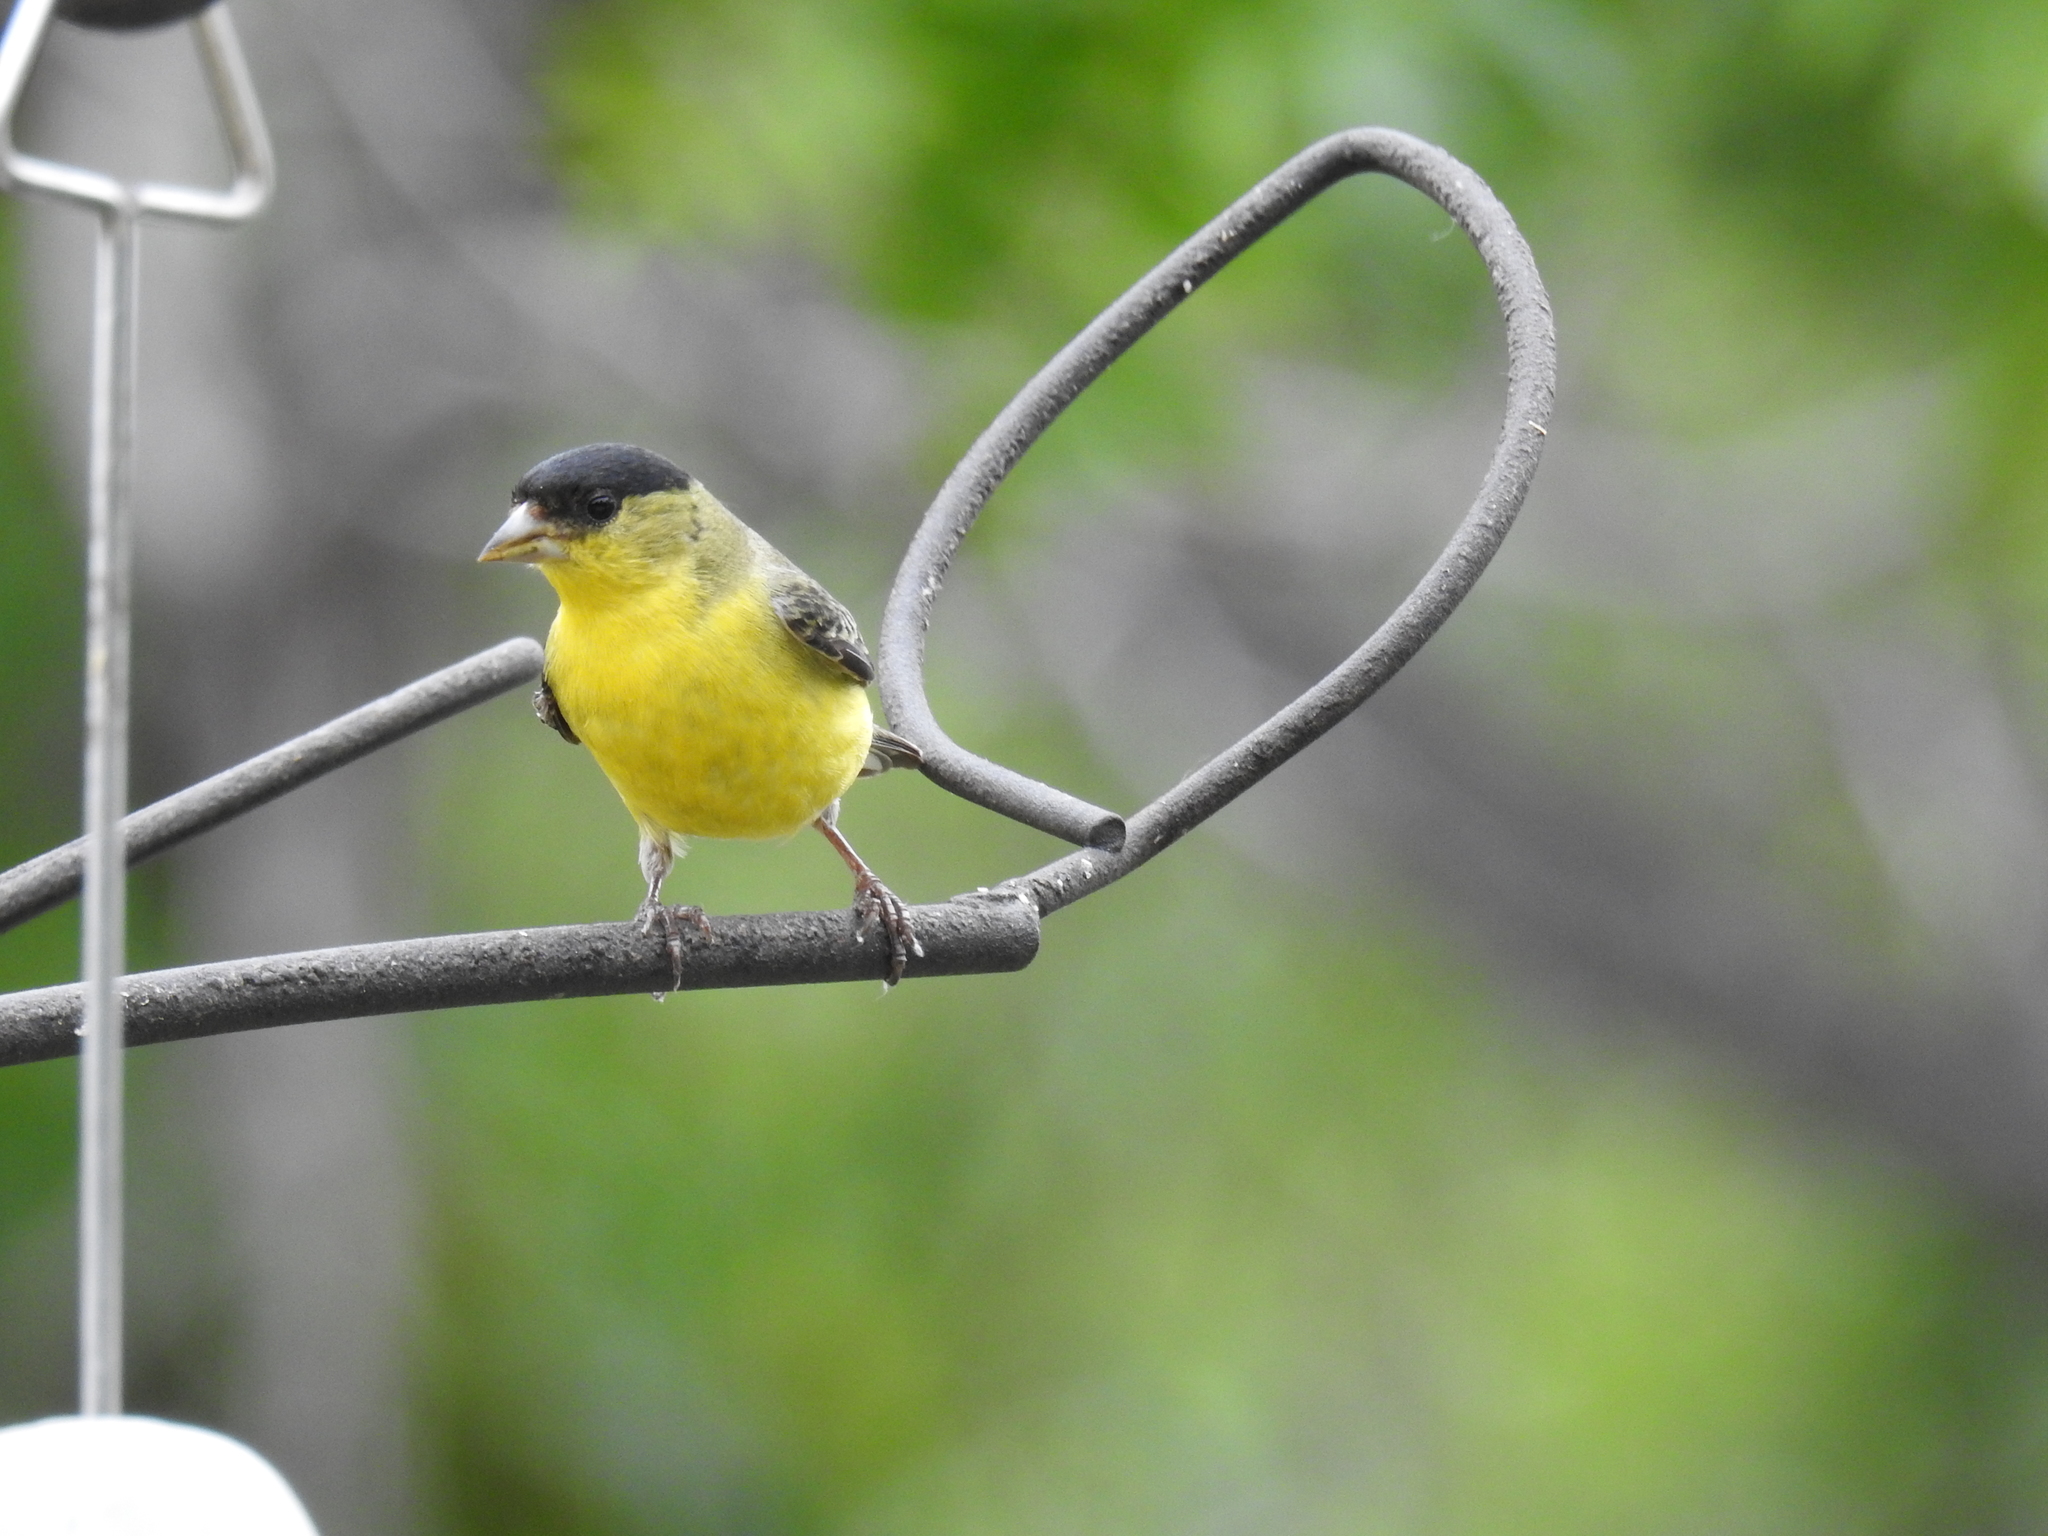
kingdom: Animalia
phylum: Chordata
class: Aves
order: Passeriformes
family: Fringillidae
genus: Spinus
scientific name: Spinus psaltria
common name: Lesser goldfinch
